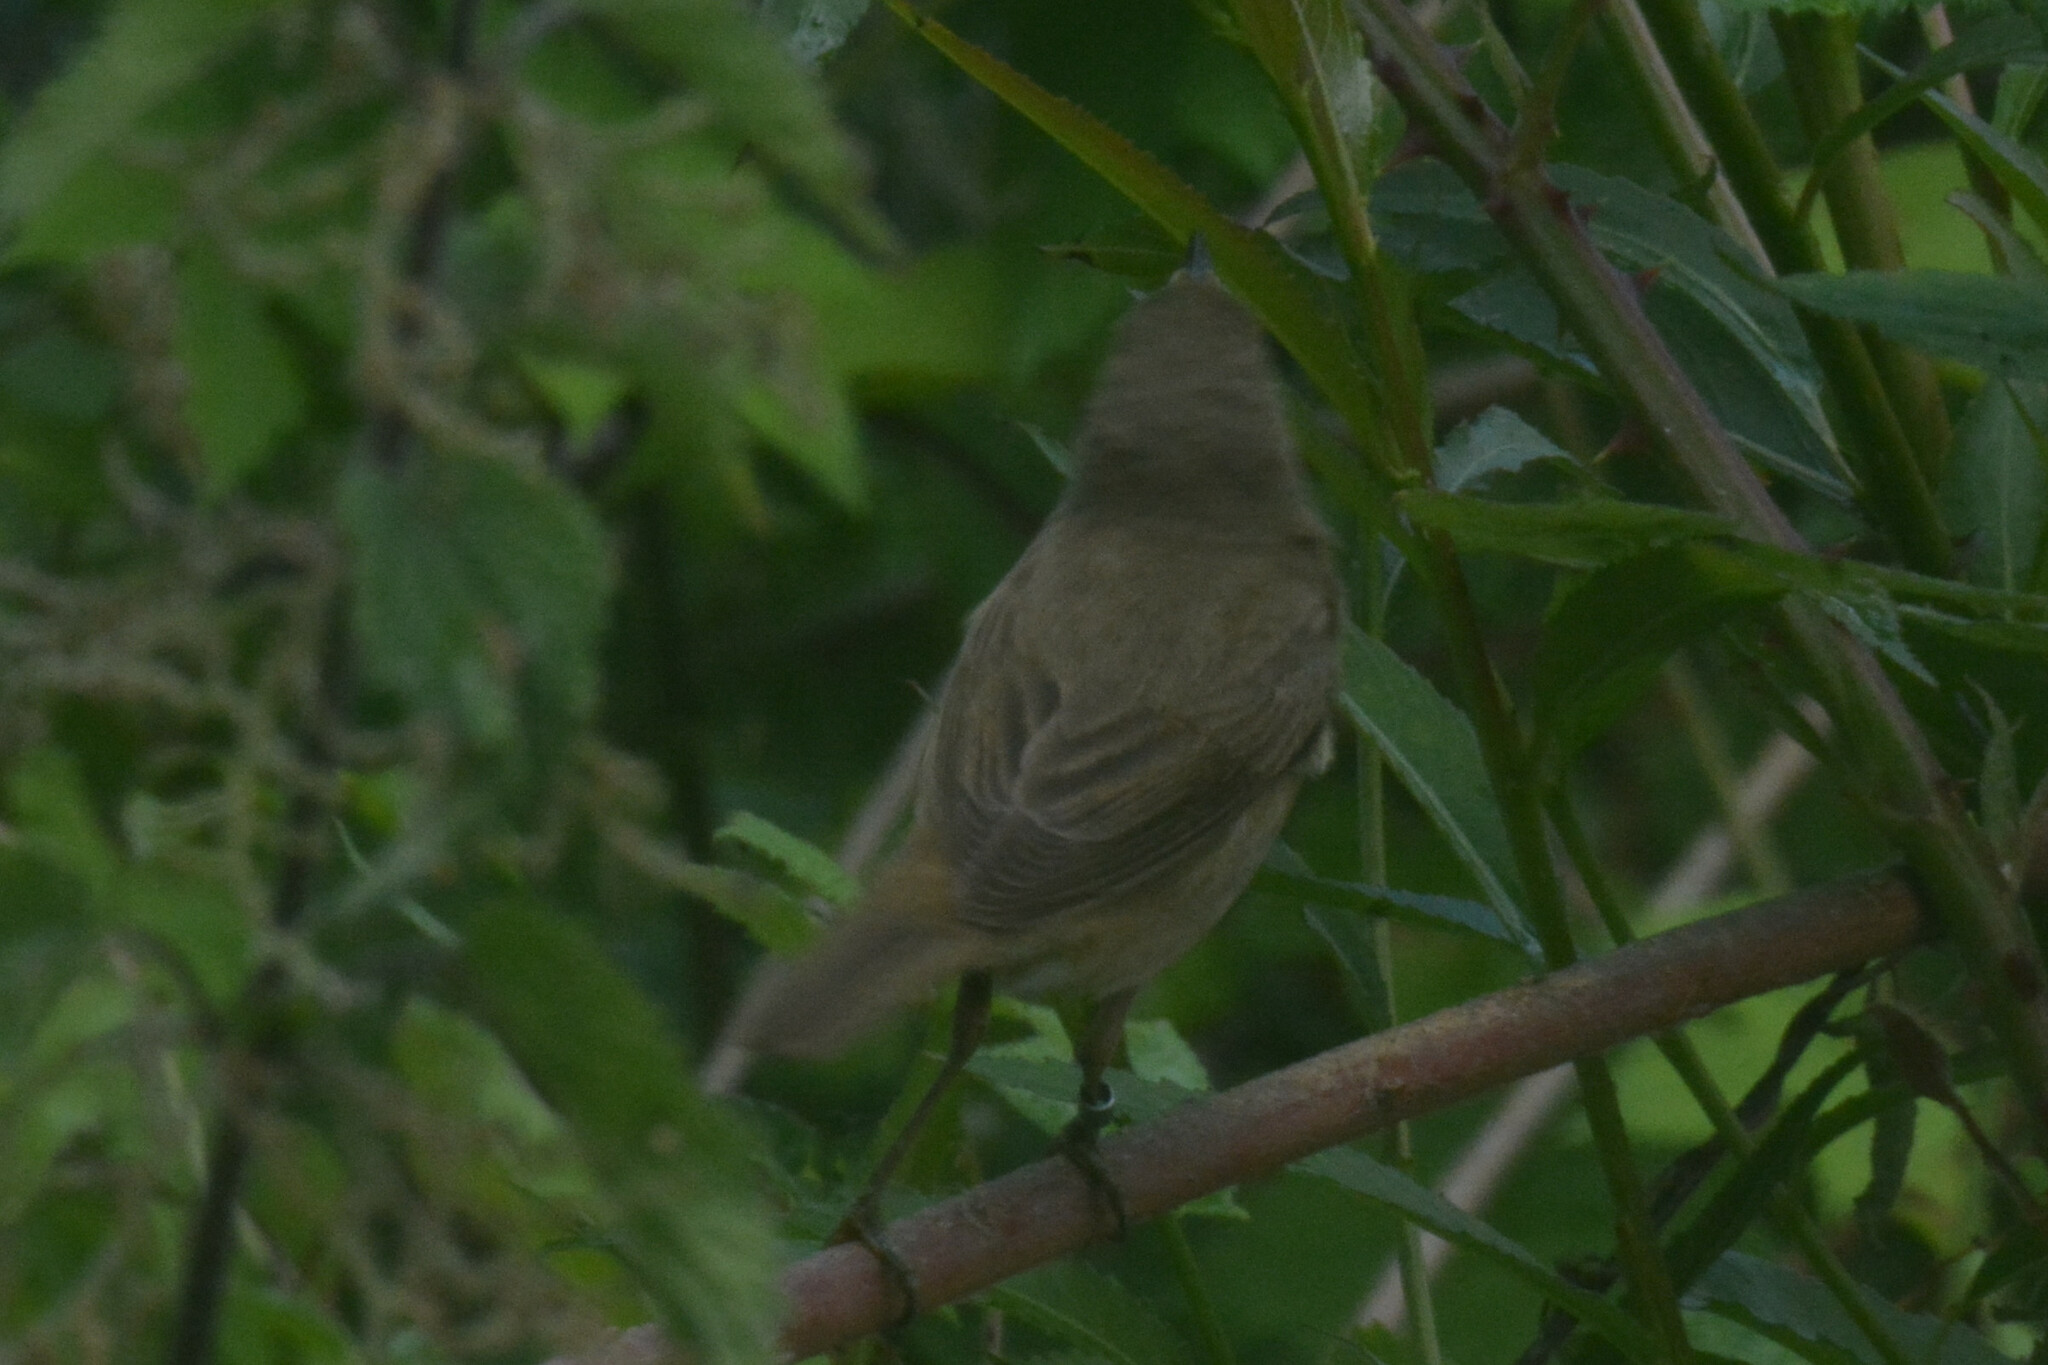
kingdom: Animalia
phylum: Chordata
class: Aves
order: Passeriformes
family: Acrocephalidae
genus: Acrocephalus
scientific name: Acrocephalus scirpaceus
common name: Eurasian reed warbler
